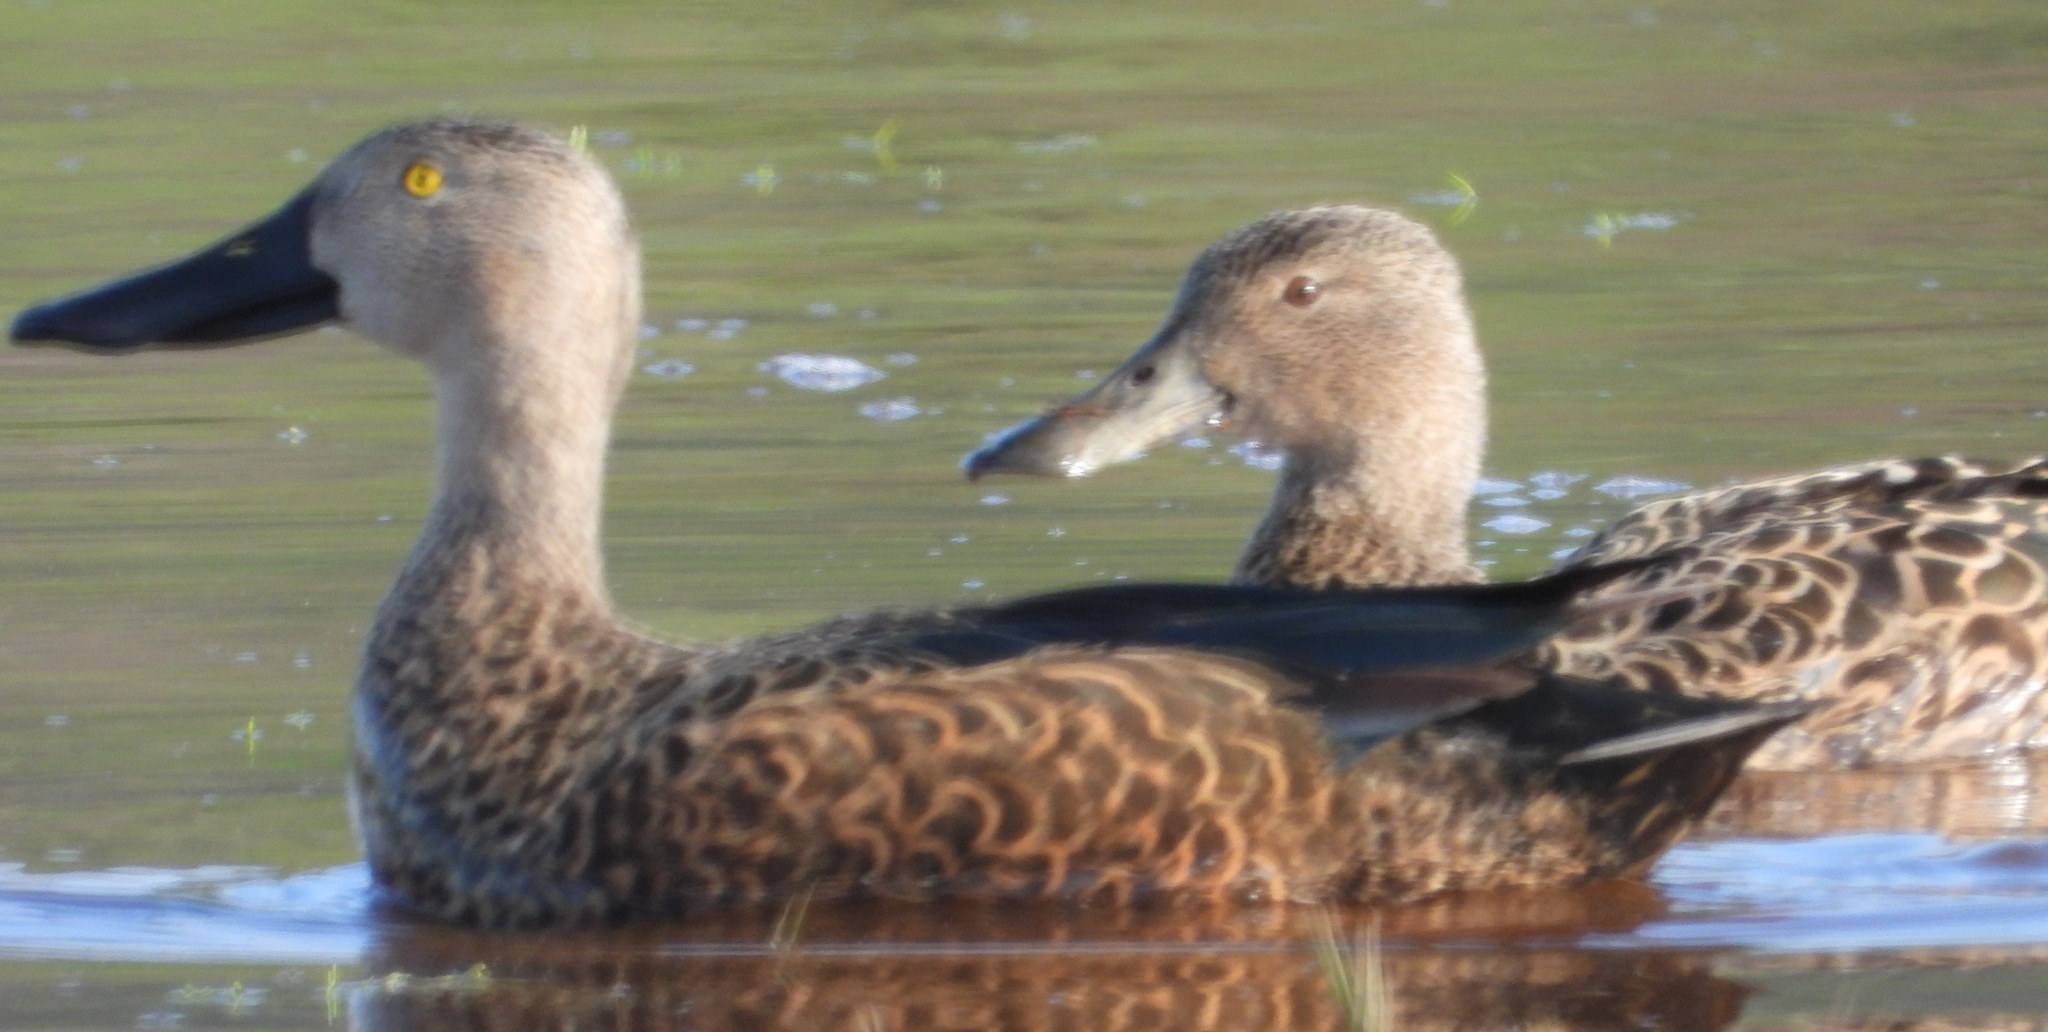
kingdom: Animalia
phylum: Chordata
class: Aves
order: Anseriformes
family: Anatidae
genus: Spatula
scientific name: Spatula smithii
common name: Cape shoveler
